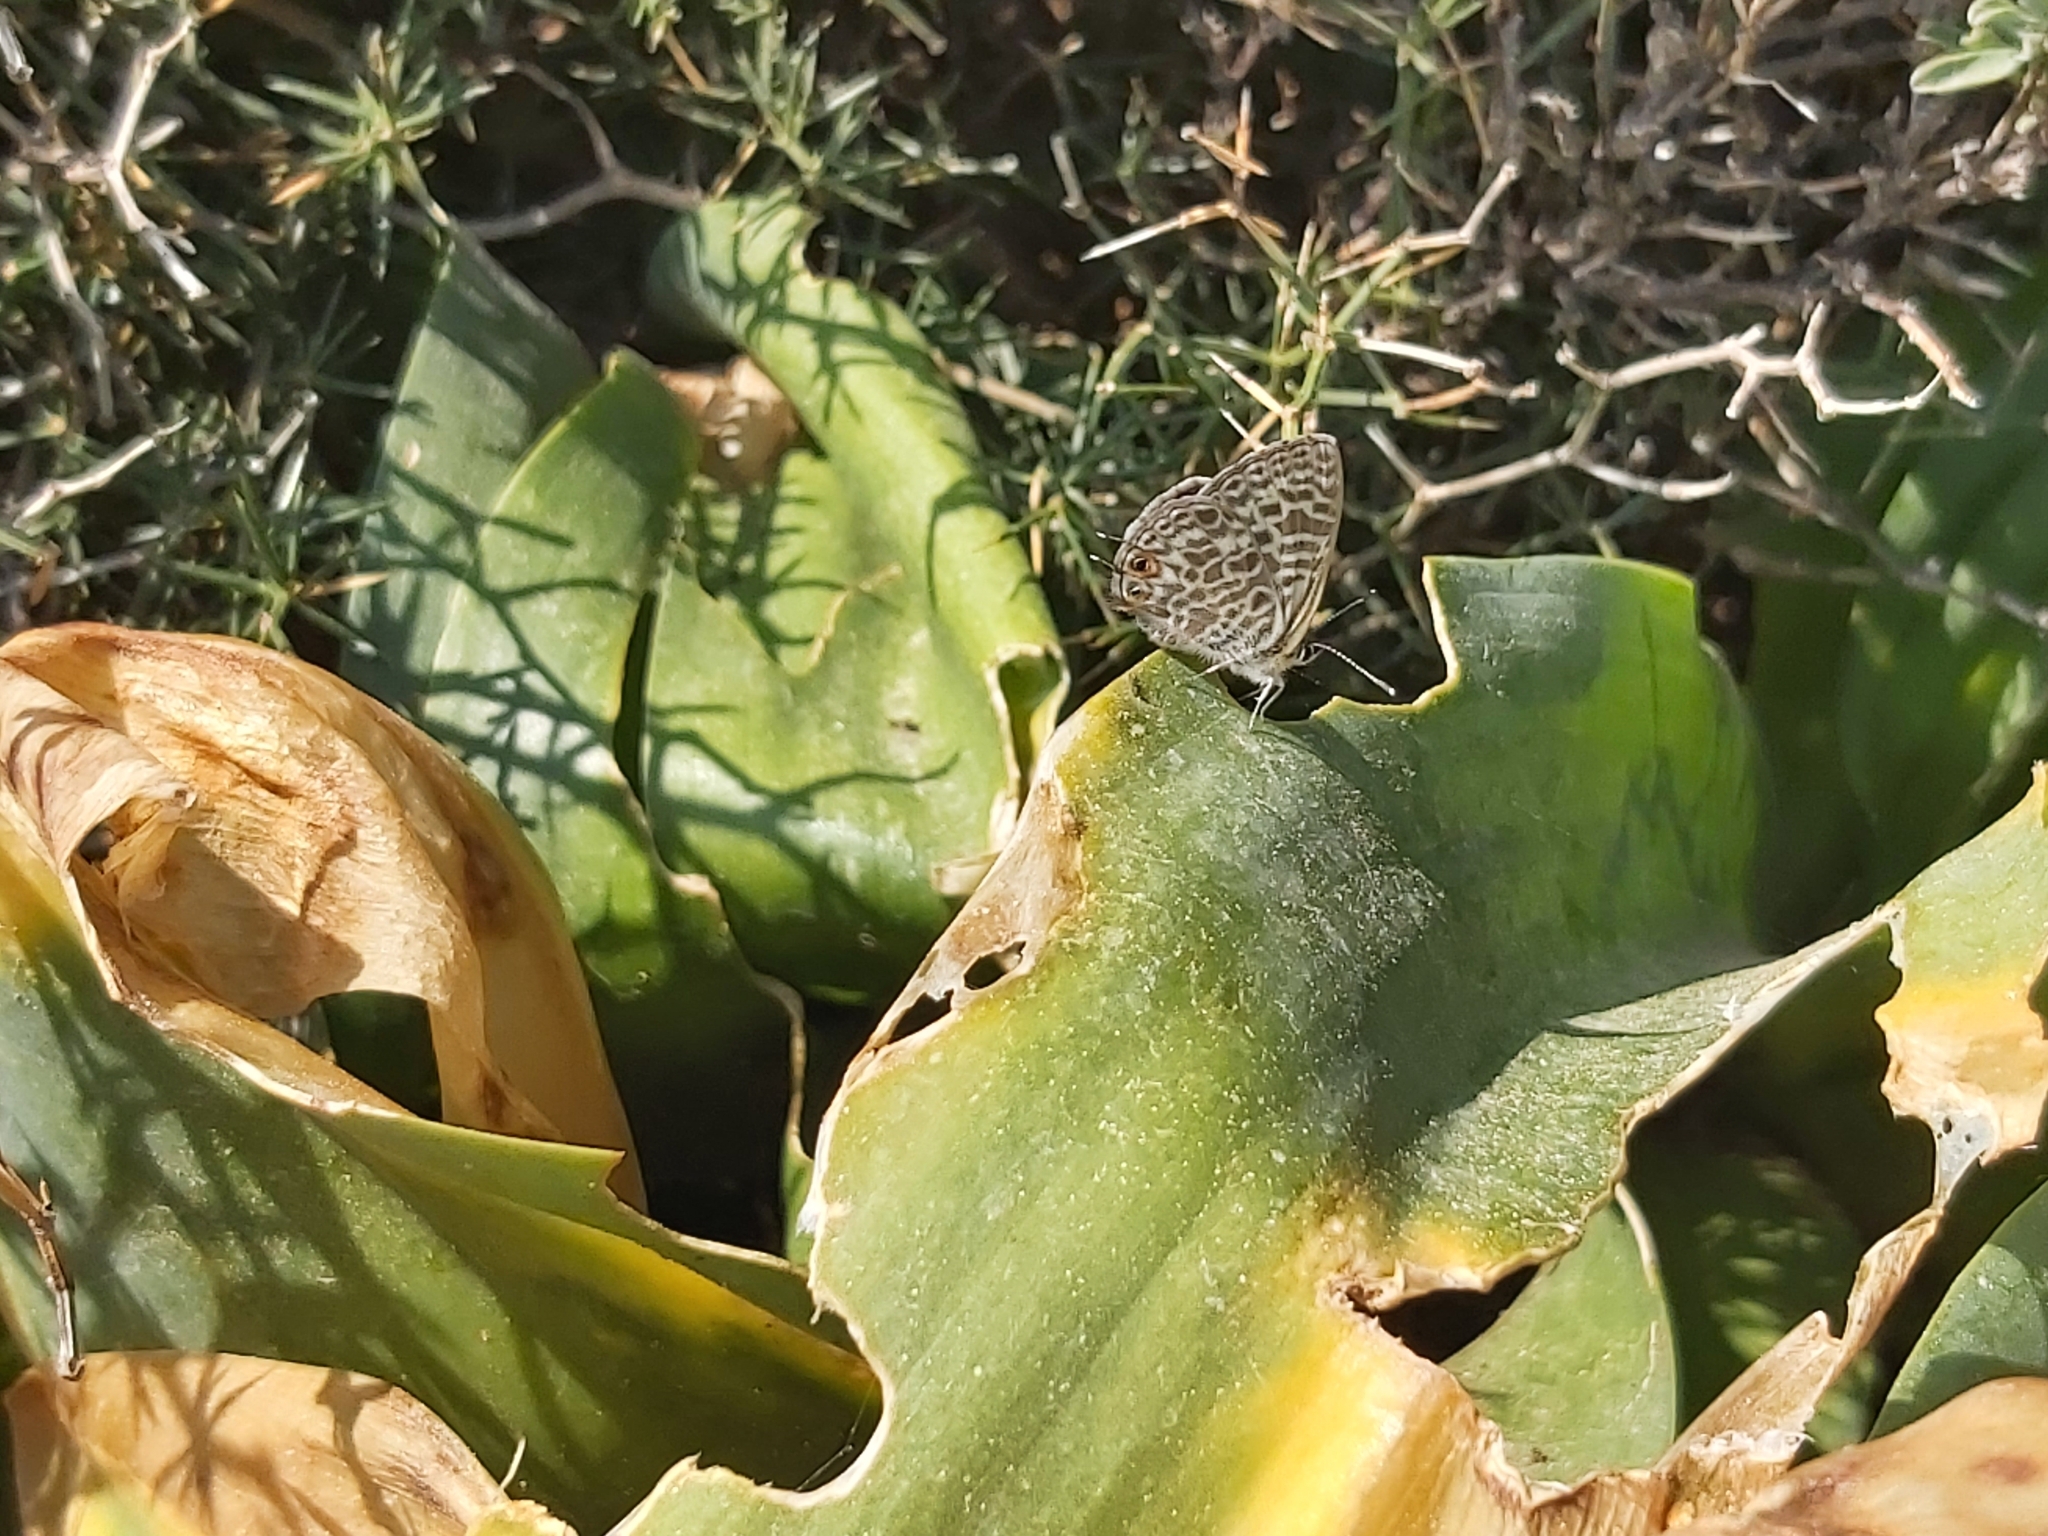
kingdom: Animalia
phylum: Arthropoda
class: Insecta
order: Lepidoptera
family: Lycaenidae
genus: Leptotes
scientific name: Leptotes pirithous
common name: Lang's short-tailed blue
